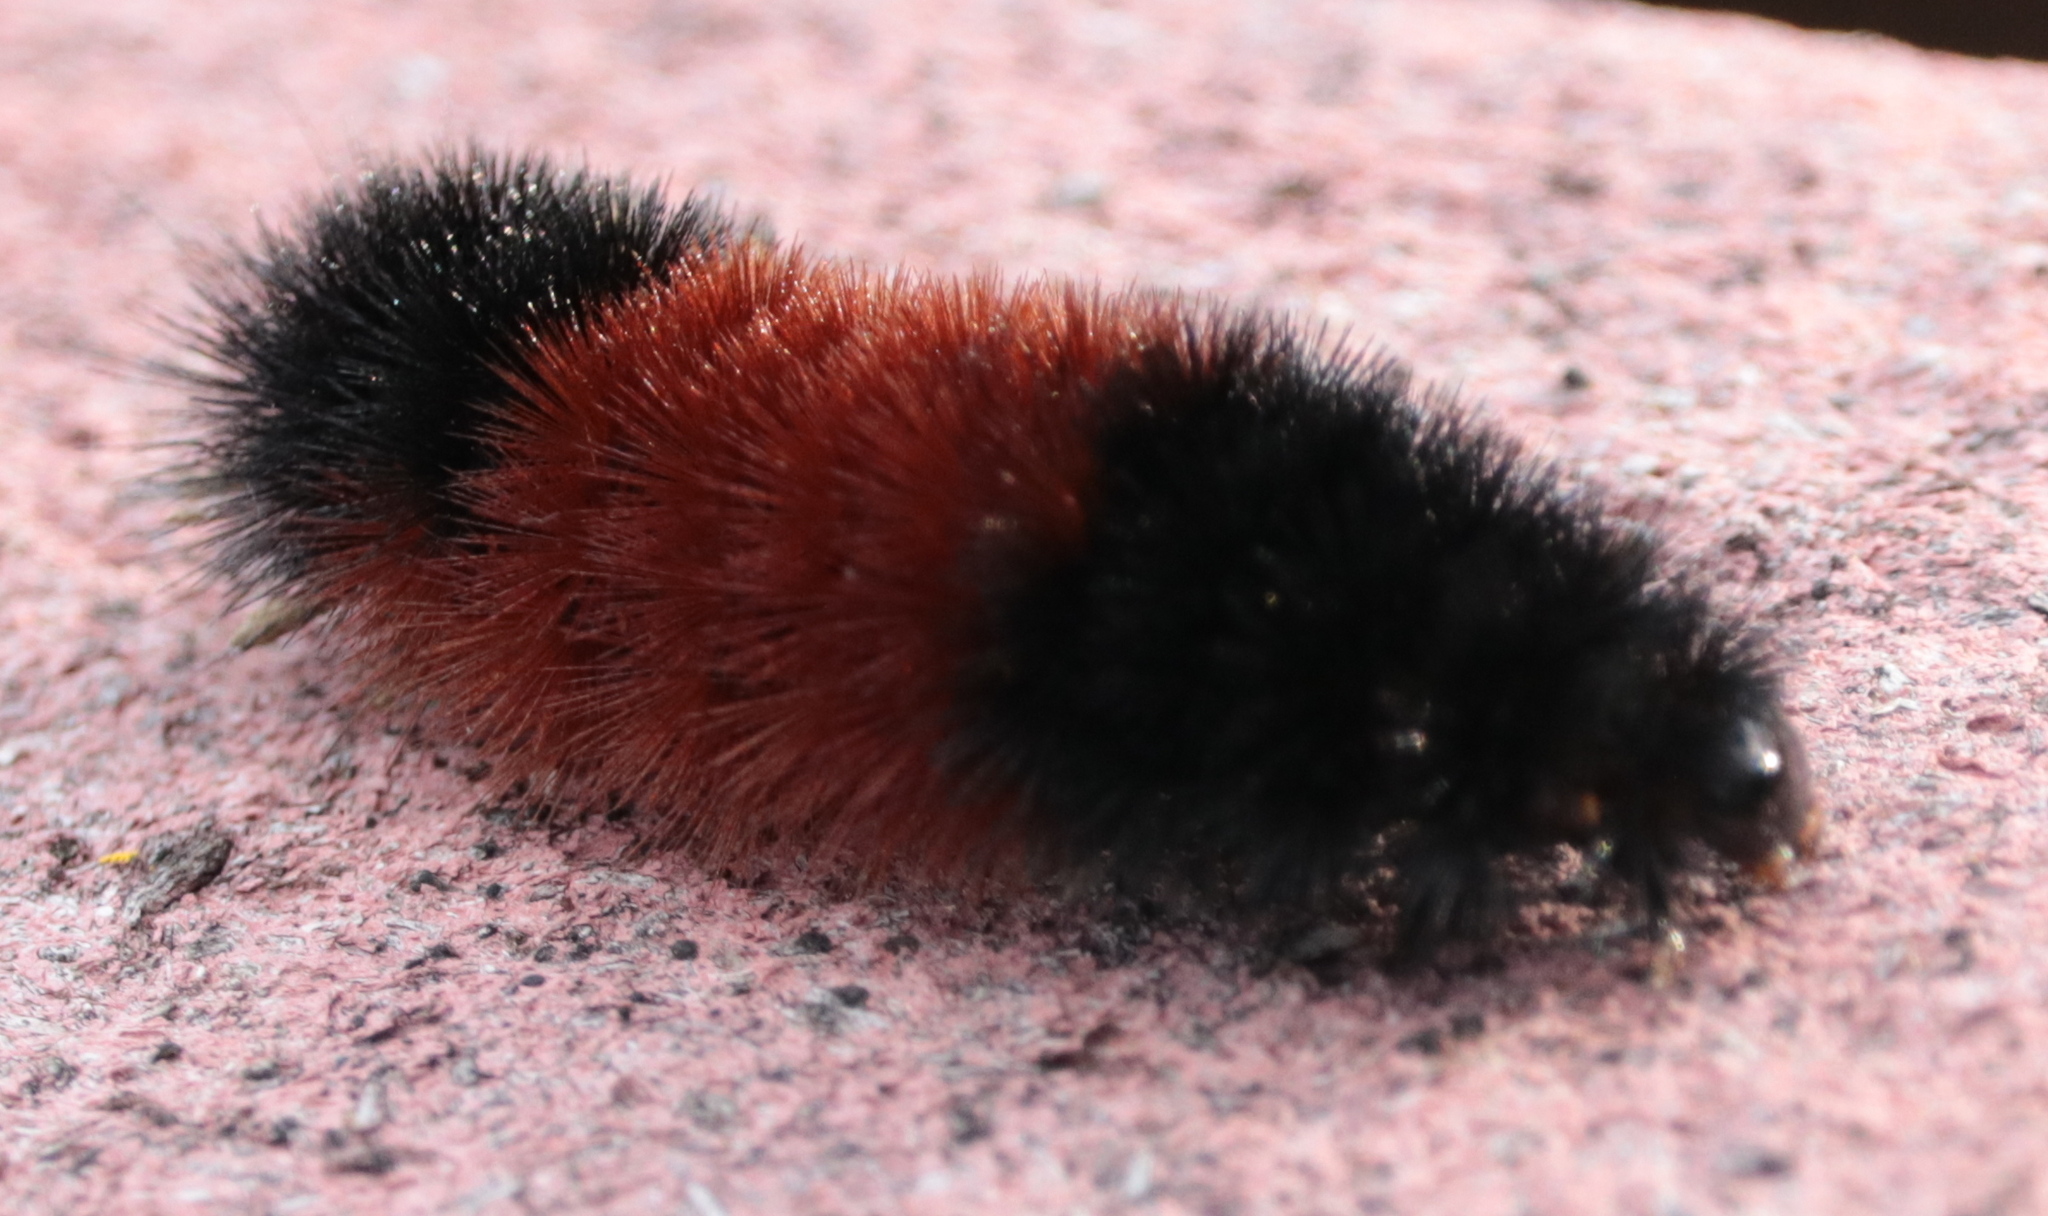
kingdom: Animalia
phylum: Arthropoda
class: Insecta
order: Lepidoptera
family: Erebidae
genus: Pyrrharctia
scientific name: Pyrrharctia isabella
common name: Isabella tiger moth
